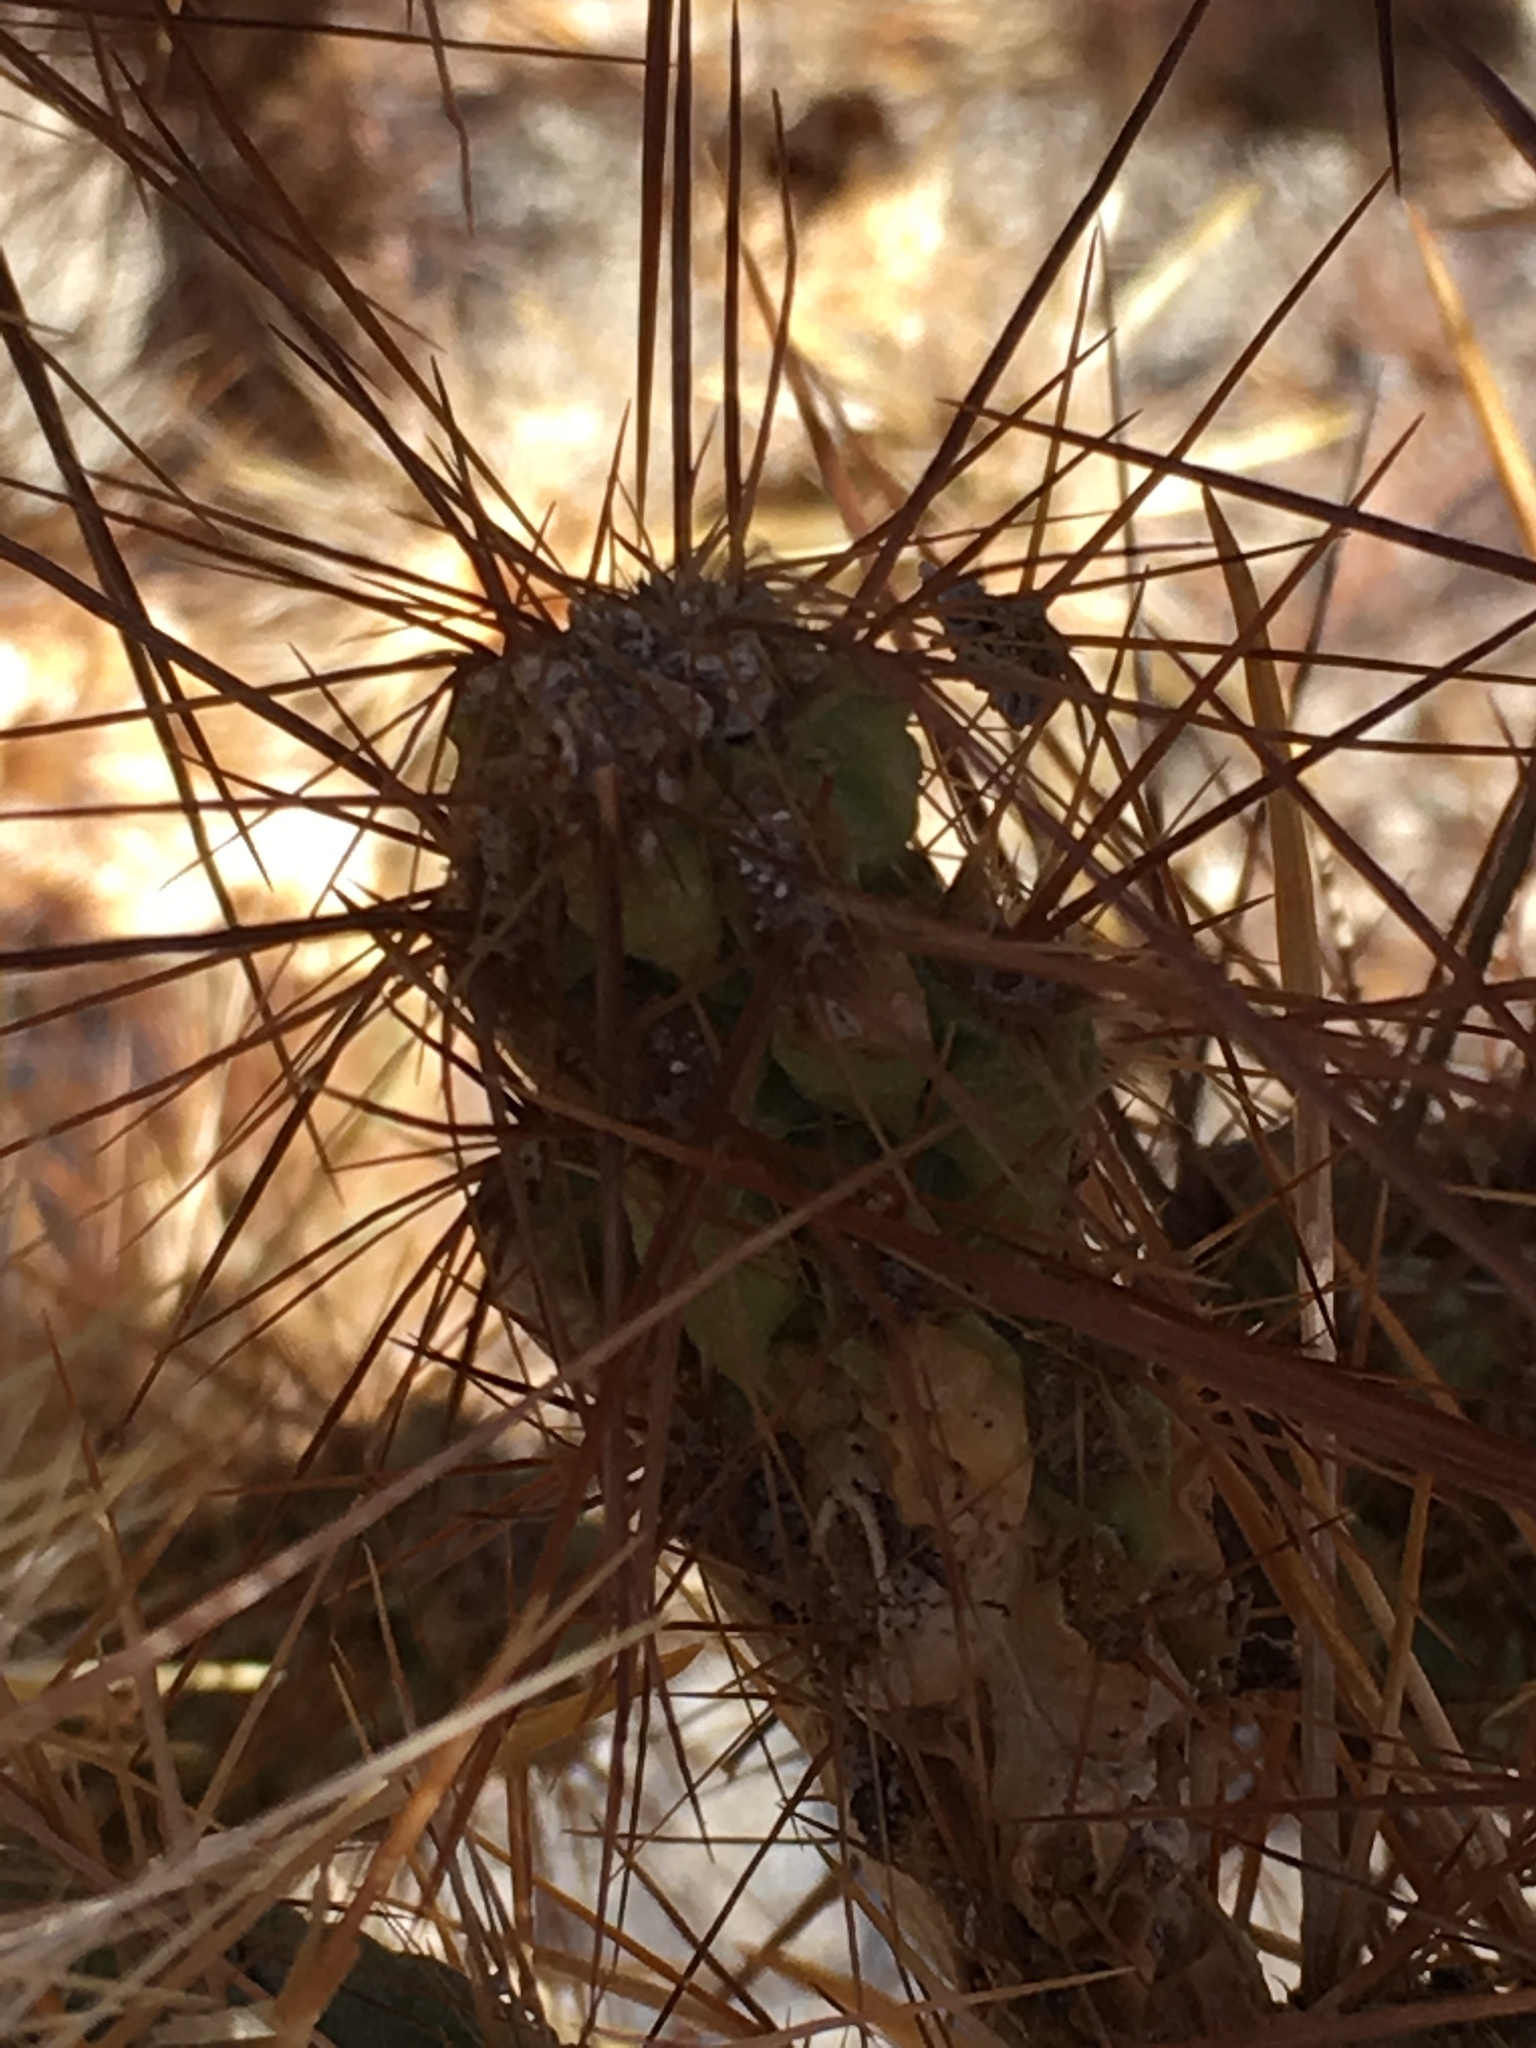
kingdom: Plantae
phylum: Tracheophyta
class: Magnoliopsida
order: Caryophyllales
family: Cactaceae
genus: Cylindropuntia
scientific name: Cylindropuntia echinocarpa
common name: Ground cholla
